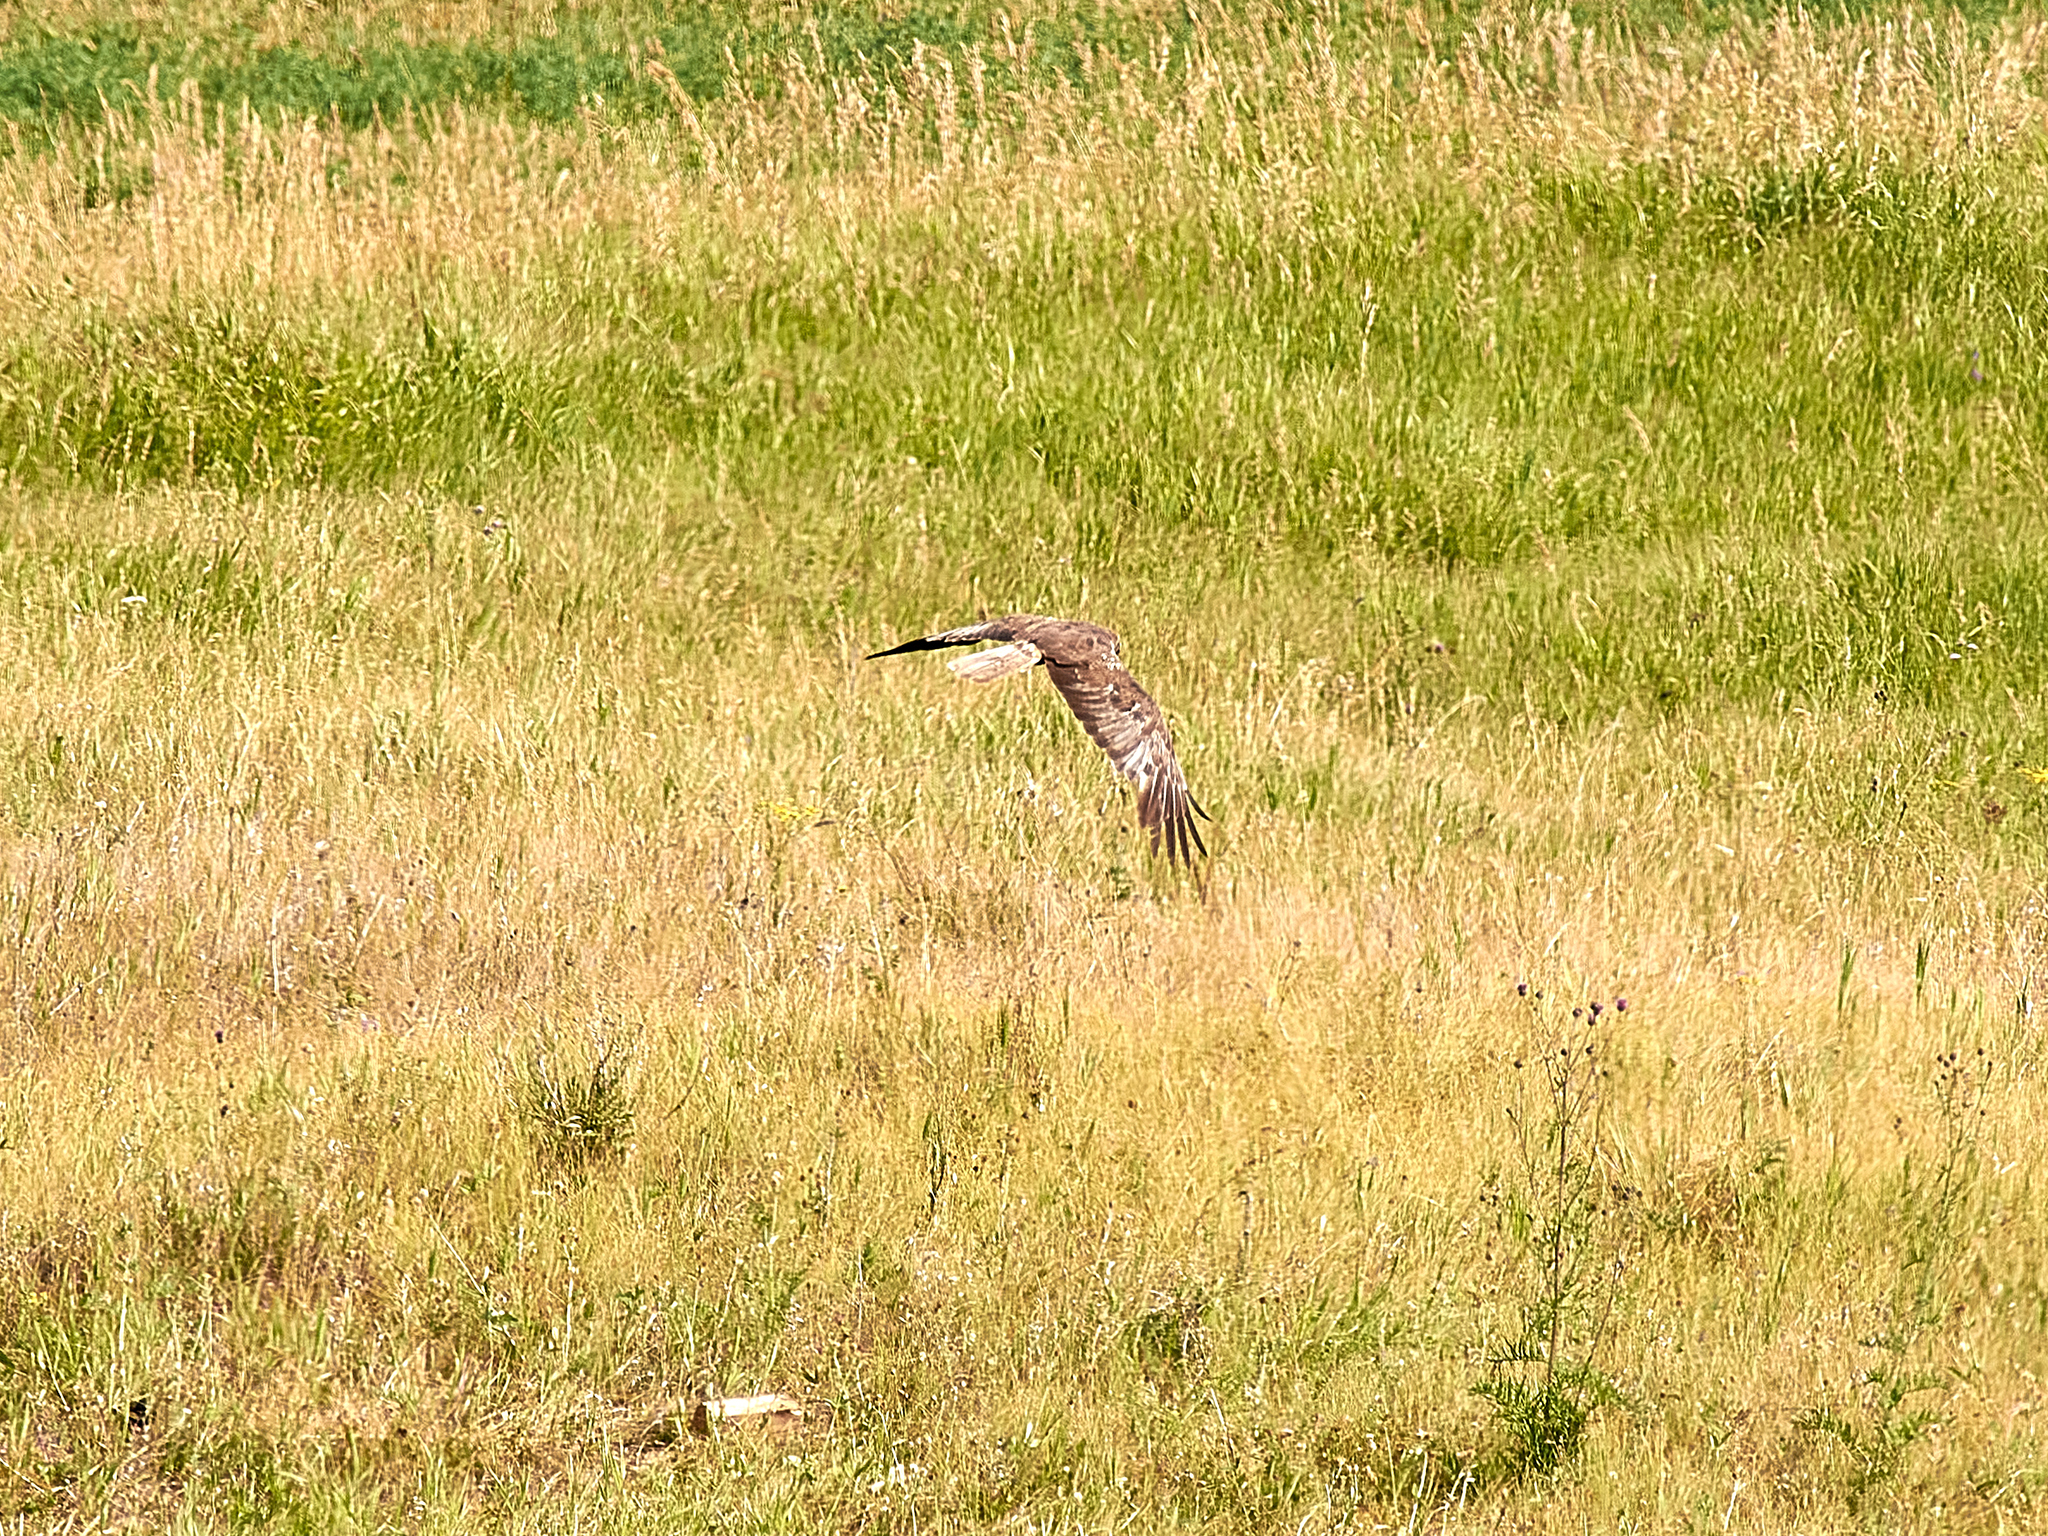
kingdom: Animalia
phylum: Chordata
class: Aves
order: Accipitriformes
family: Accipitridae
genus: Circus
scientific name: Circus aeruginosus
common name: Western marsh harrier
